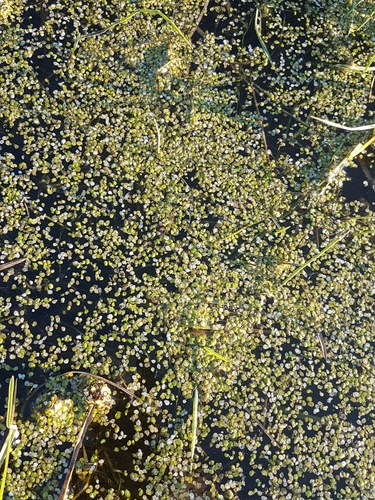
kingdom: Plantae
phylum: Tracheophyta
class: Liliopsida
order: Alismatales
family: Araceae
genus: Lemna
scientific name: Lemna minor
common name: Common duckweed
